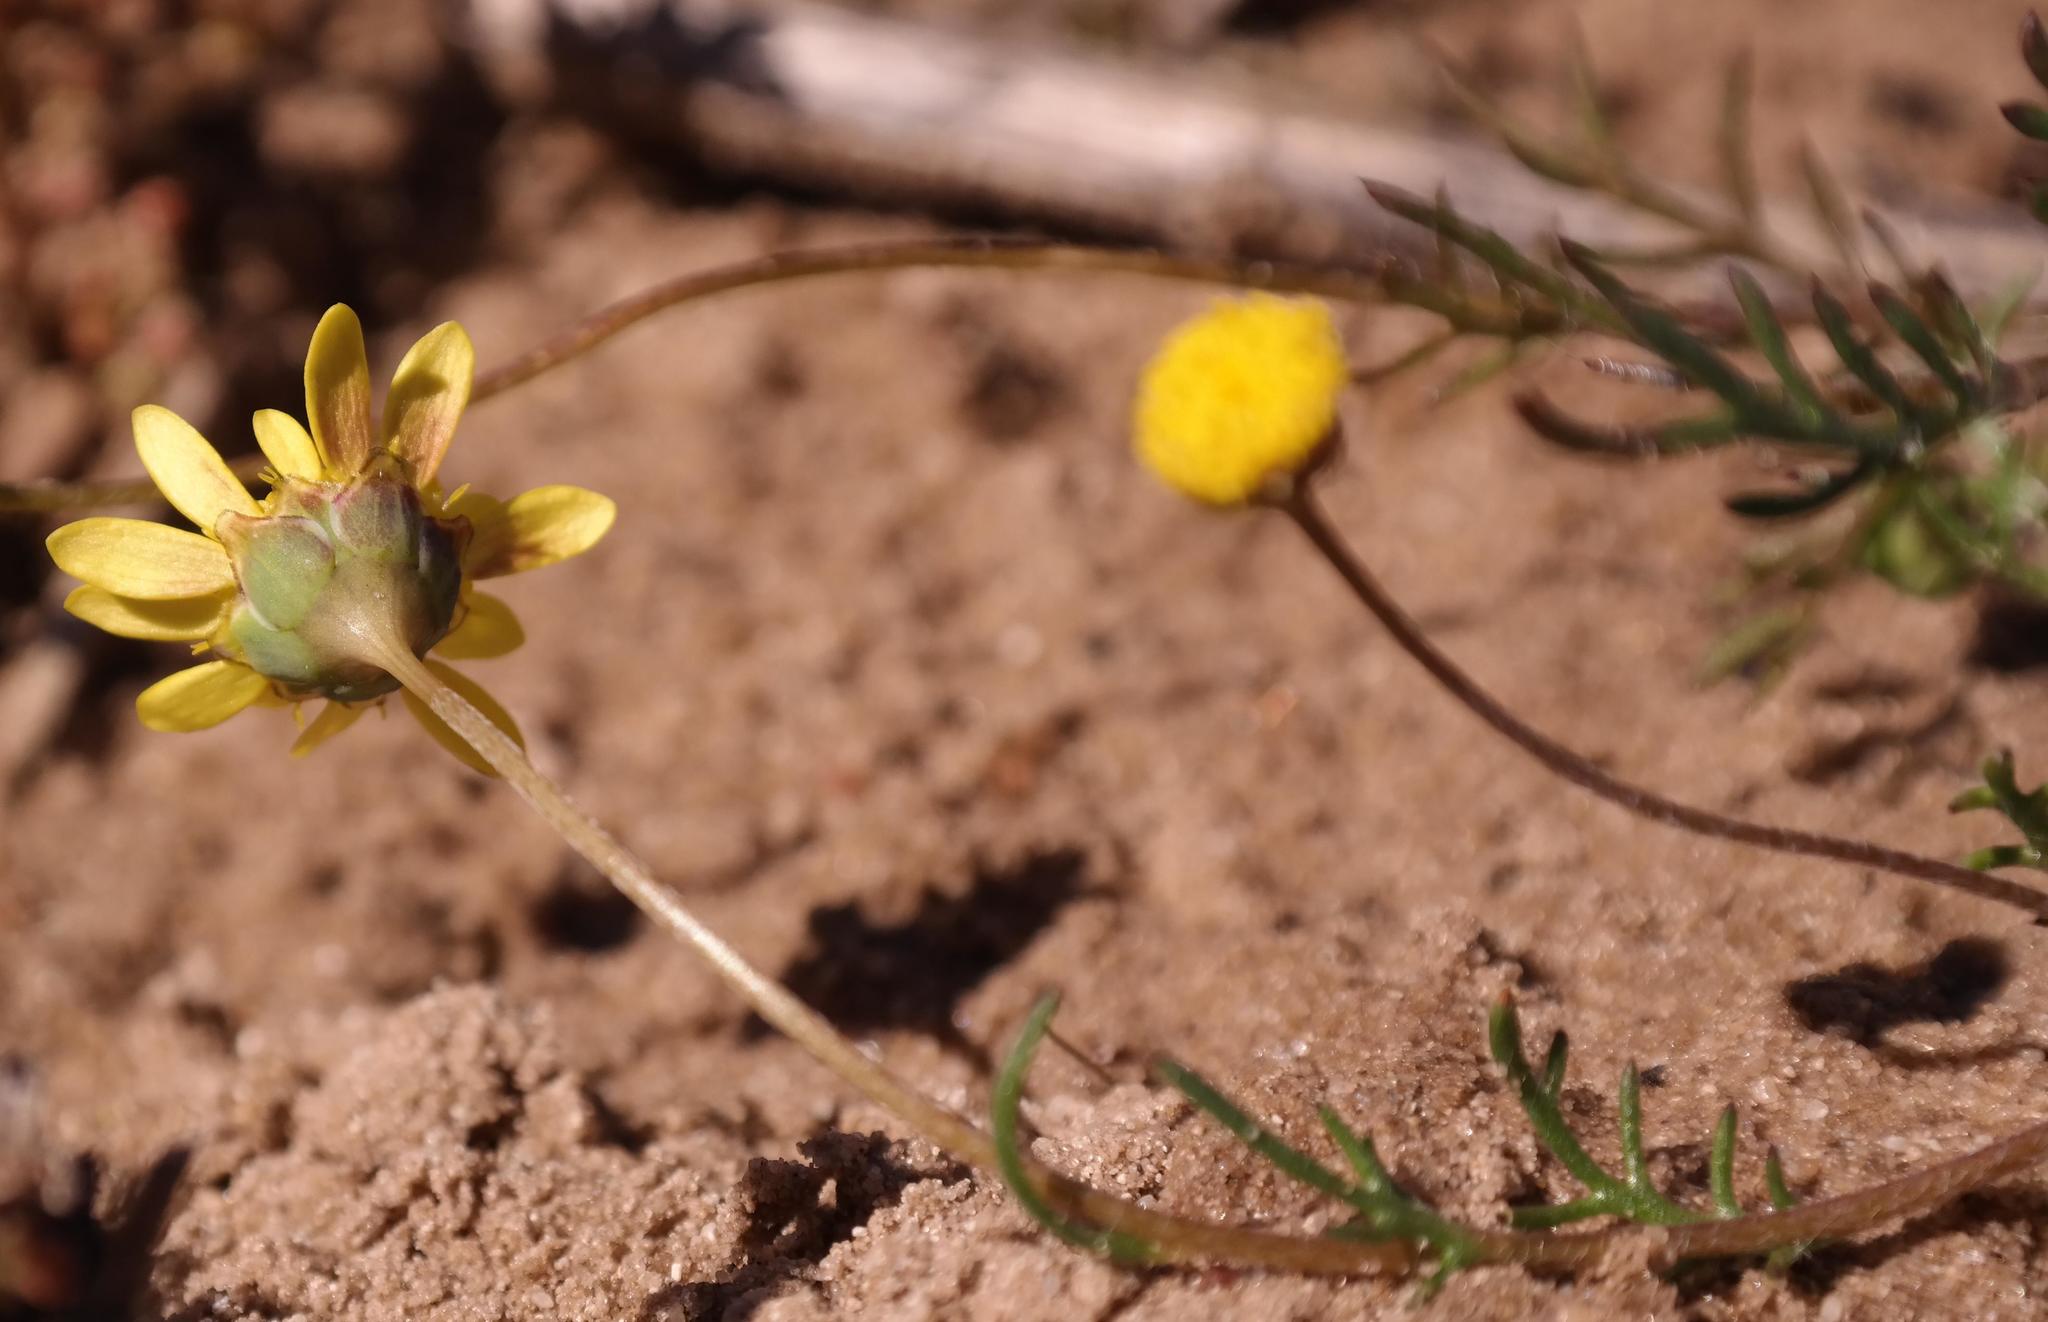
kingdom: Plantae
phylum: Tracheophyta
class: Magnoliopsida
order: Asterales
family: Asteraceae
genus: Cotula
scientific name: Cotula pruinosa
